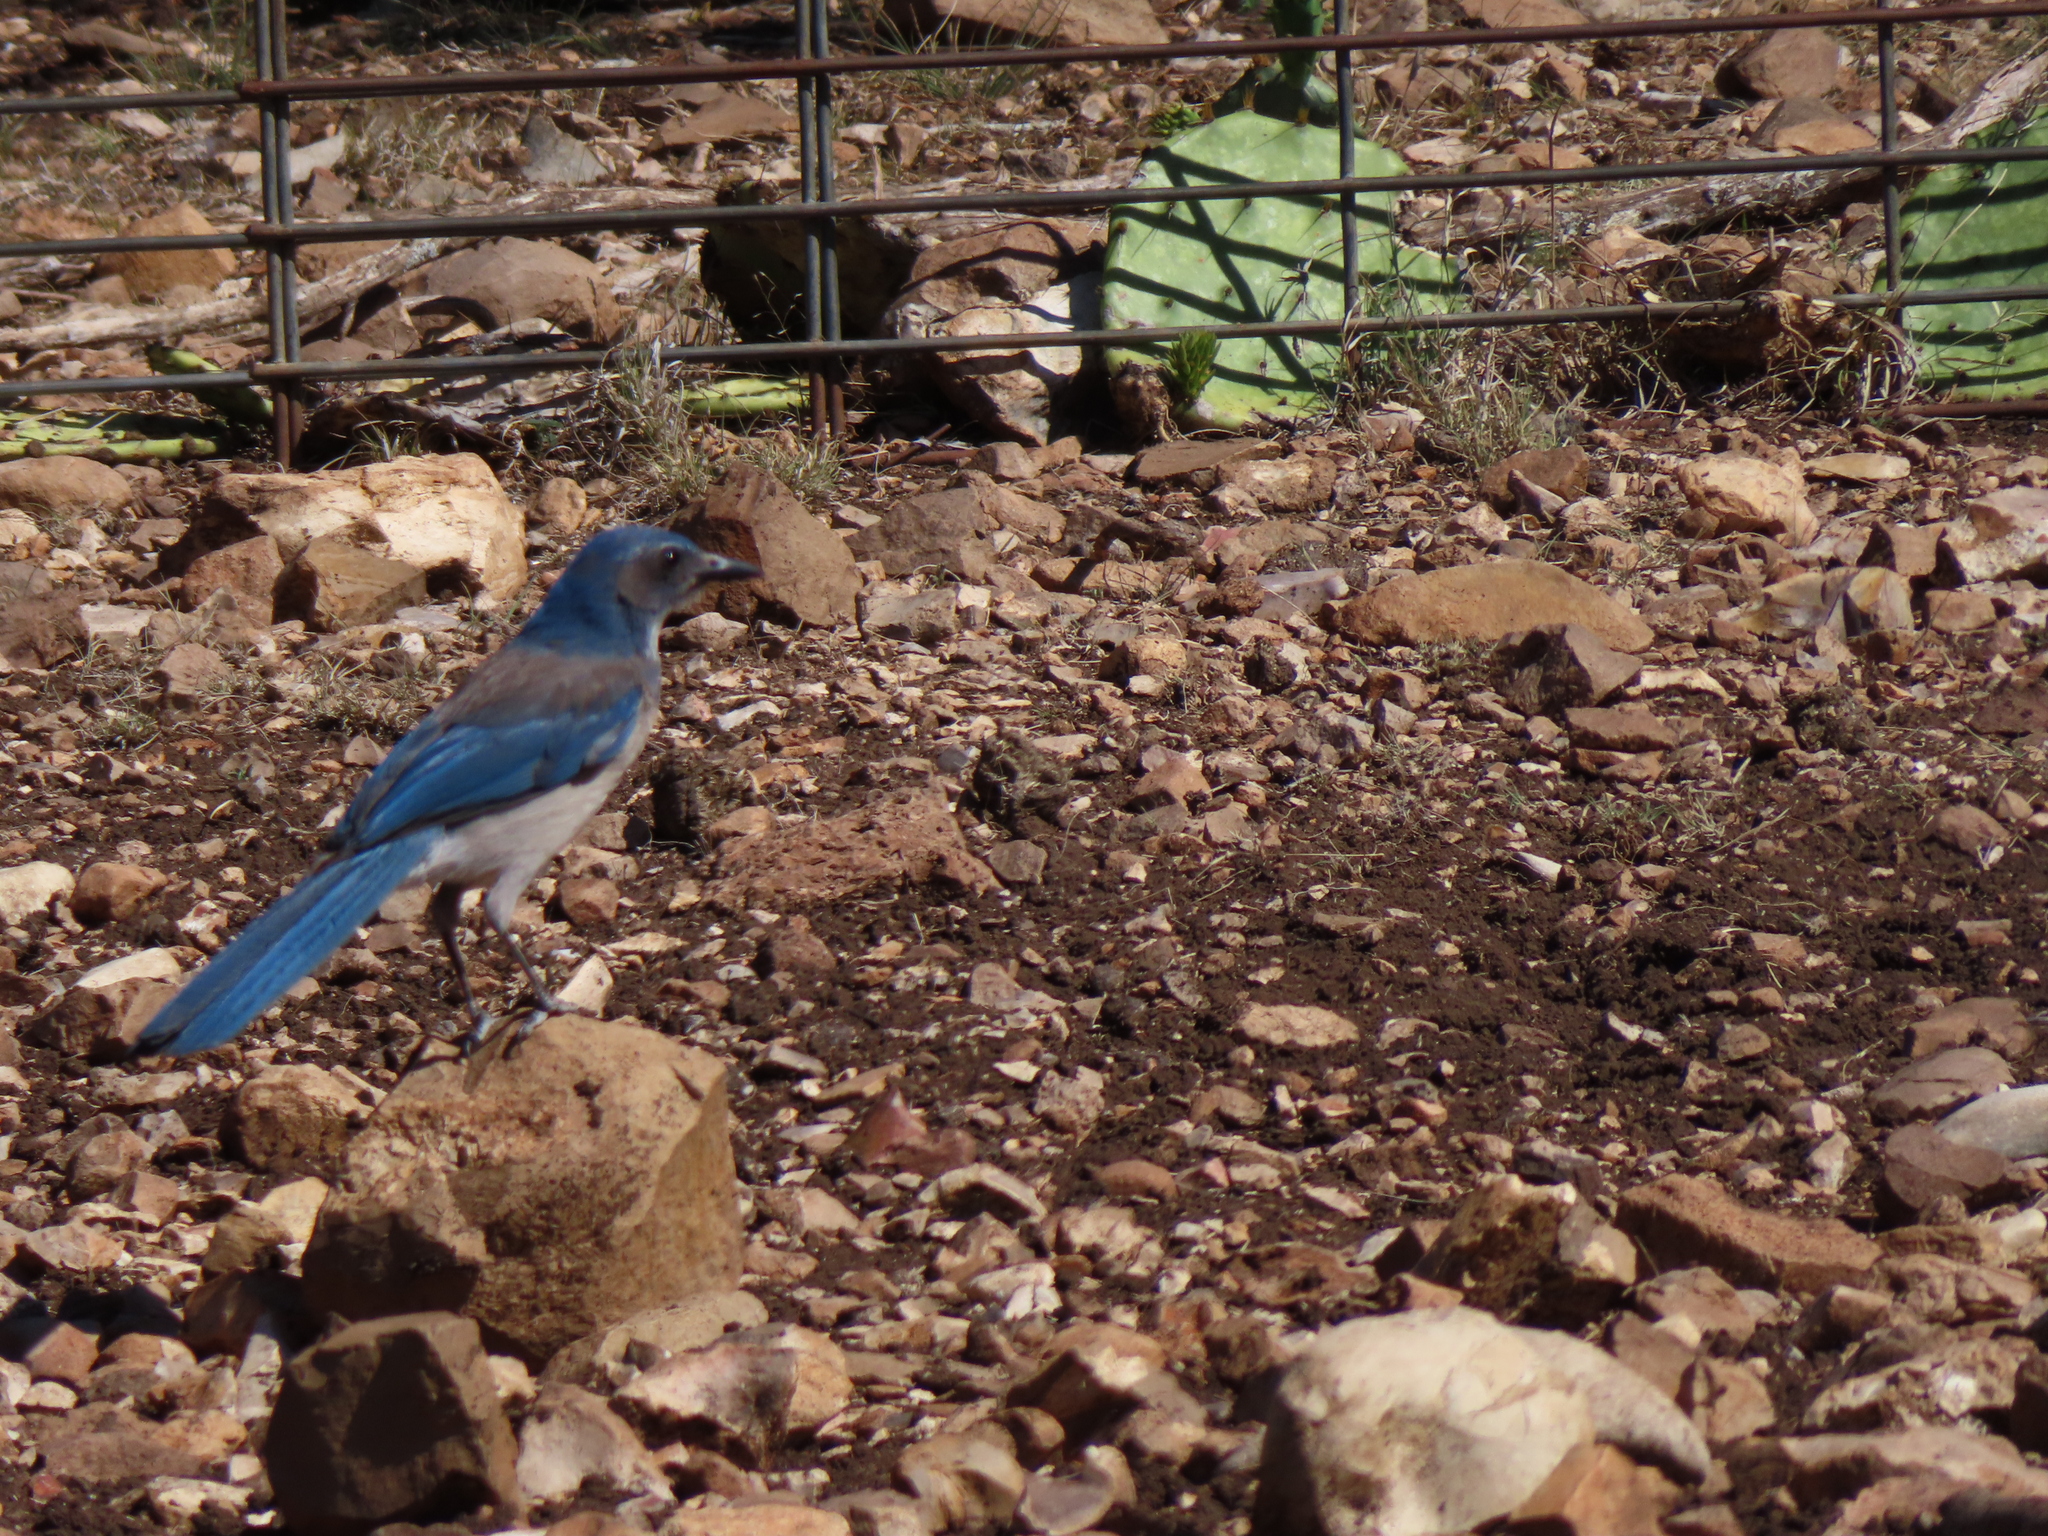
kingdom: Animalia
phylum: Chordata
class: Aves
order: Passeriformes
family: Corvidae
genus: Aphelocoma
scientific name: Aphelocoma woodhouseii
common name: Woodhouse's scrub-jay
